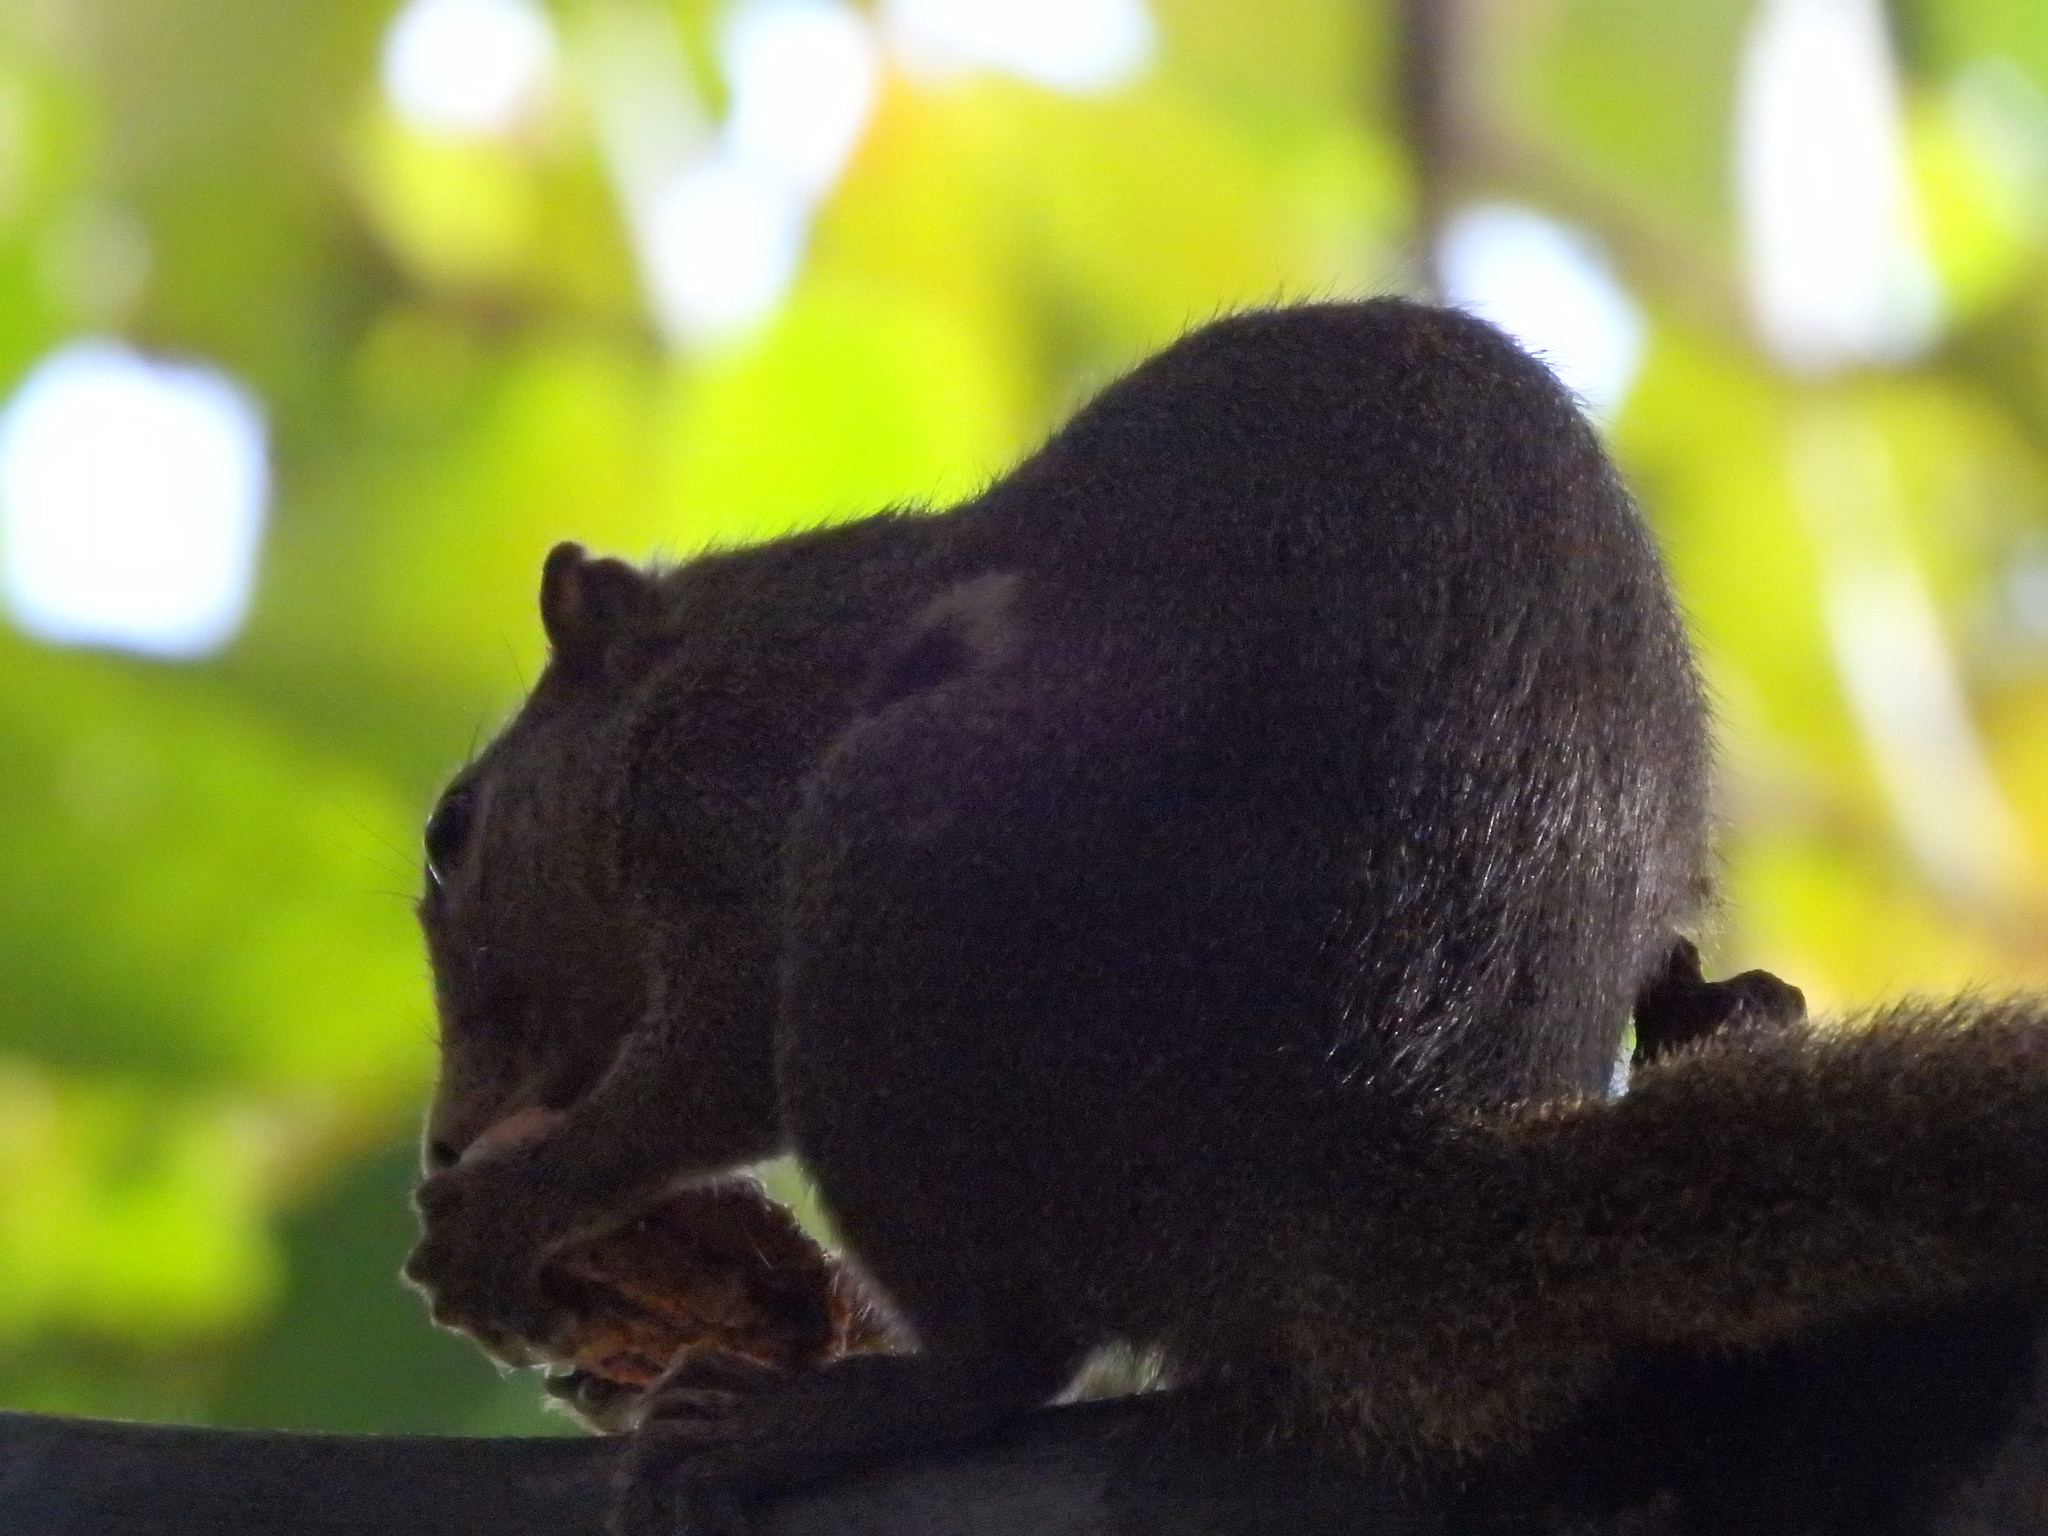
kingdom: Animalia
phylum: Chordata
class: Mammalia
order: Rodentia
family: Sciuridae
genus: Callosciurus
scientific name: Callosciurus notatus
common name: Plantain squirrel
